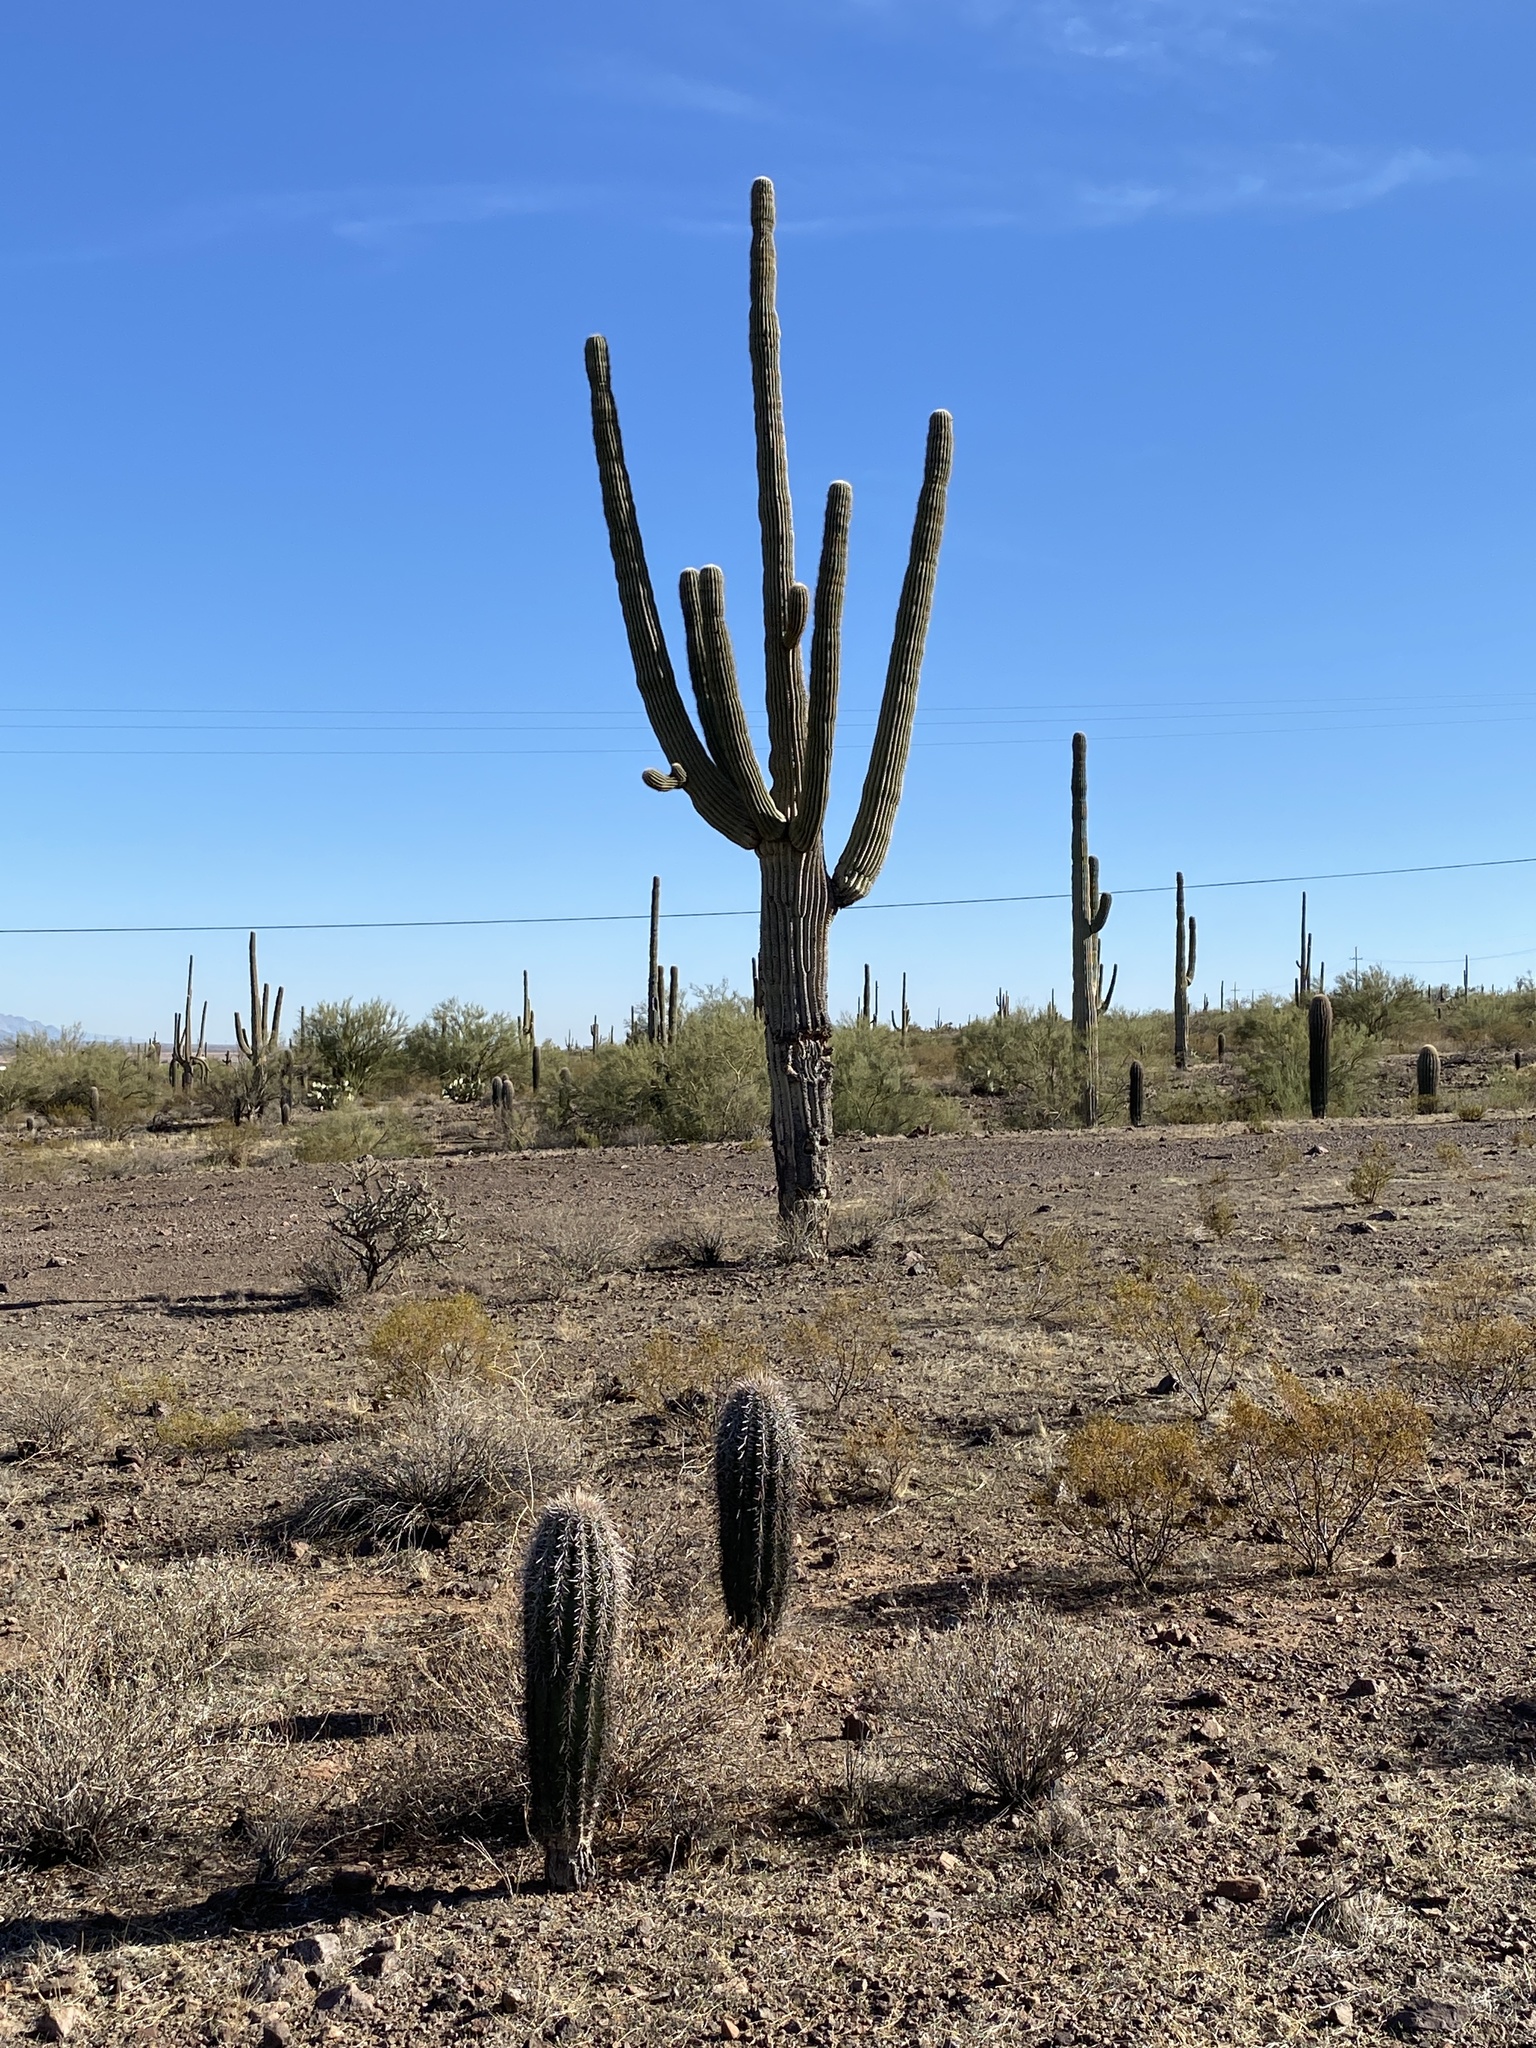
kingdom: Plantae
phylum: Tracheophyta
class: Magnoliopsida
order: Caryophyllales
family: Cactaceae
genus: Carnegiea
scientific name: Carnegiea gigantea
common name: Saguaro
